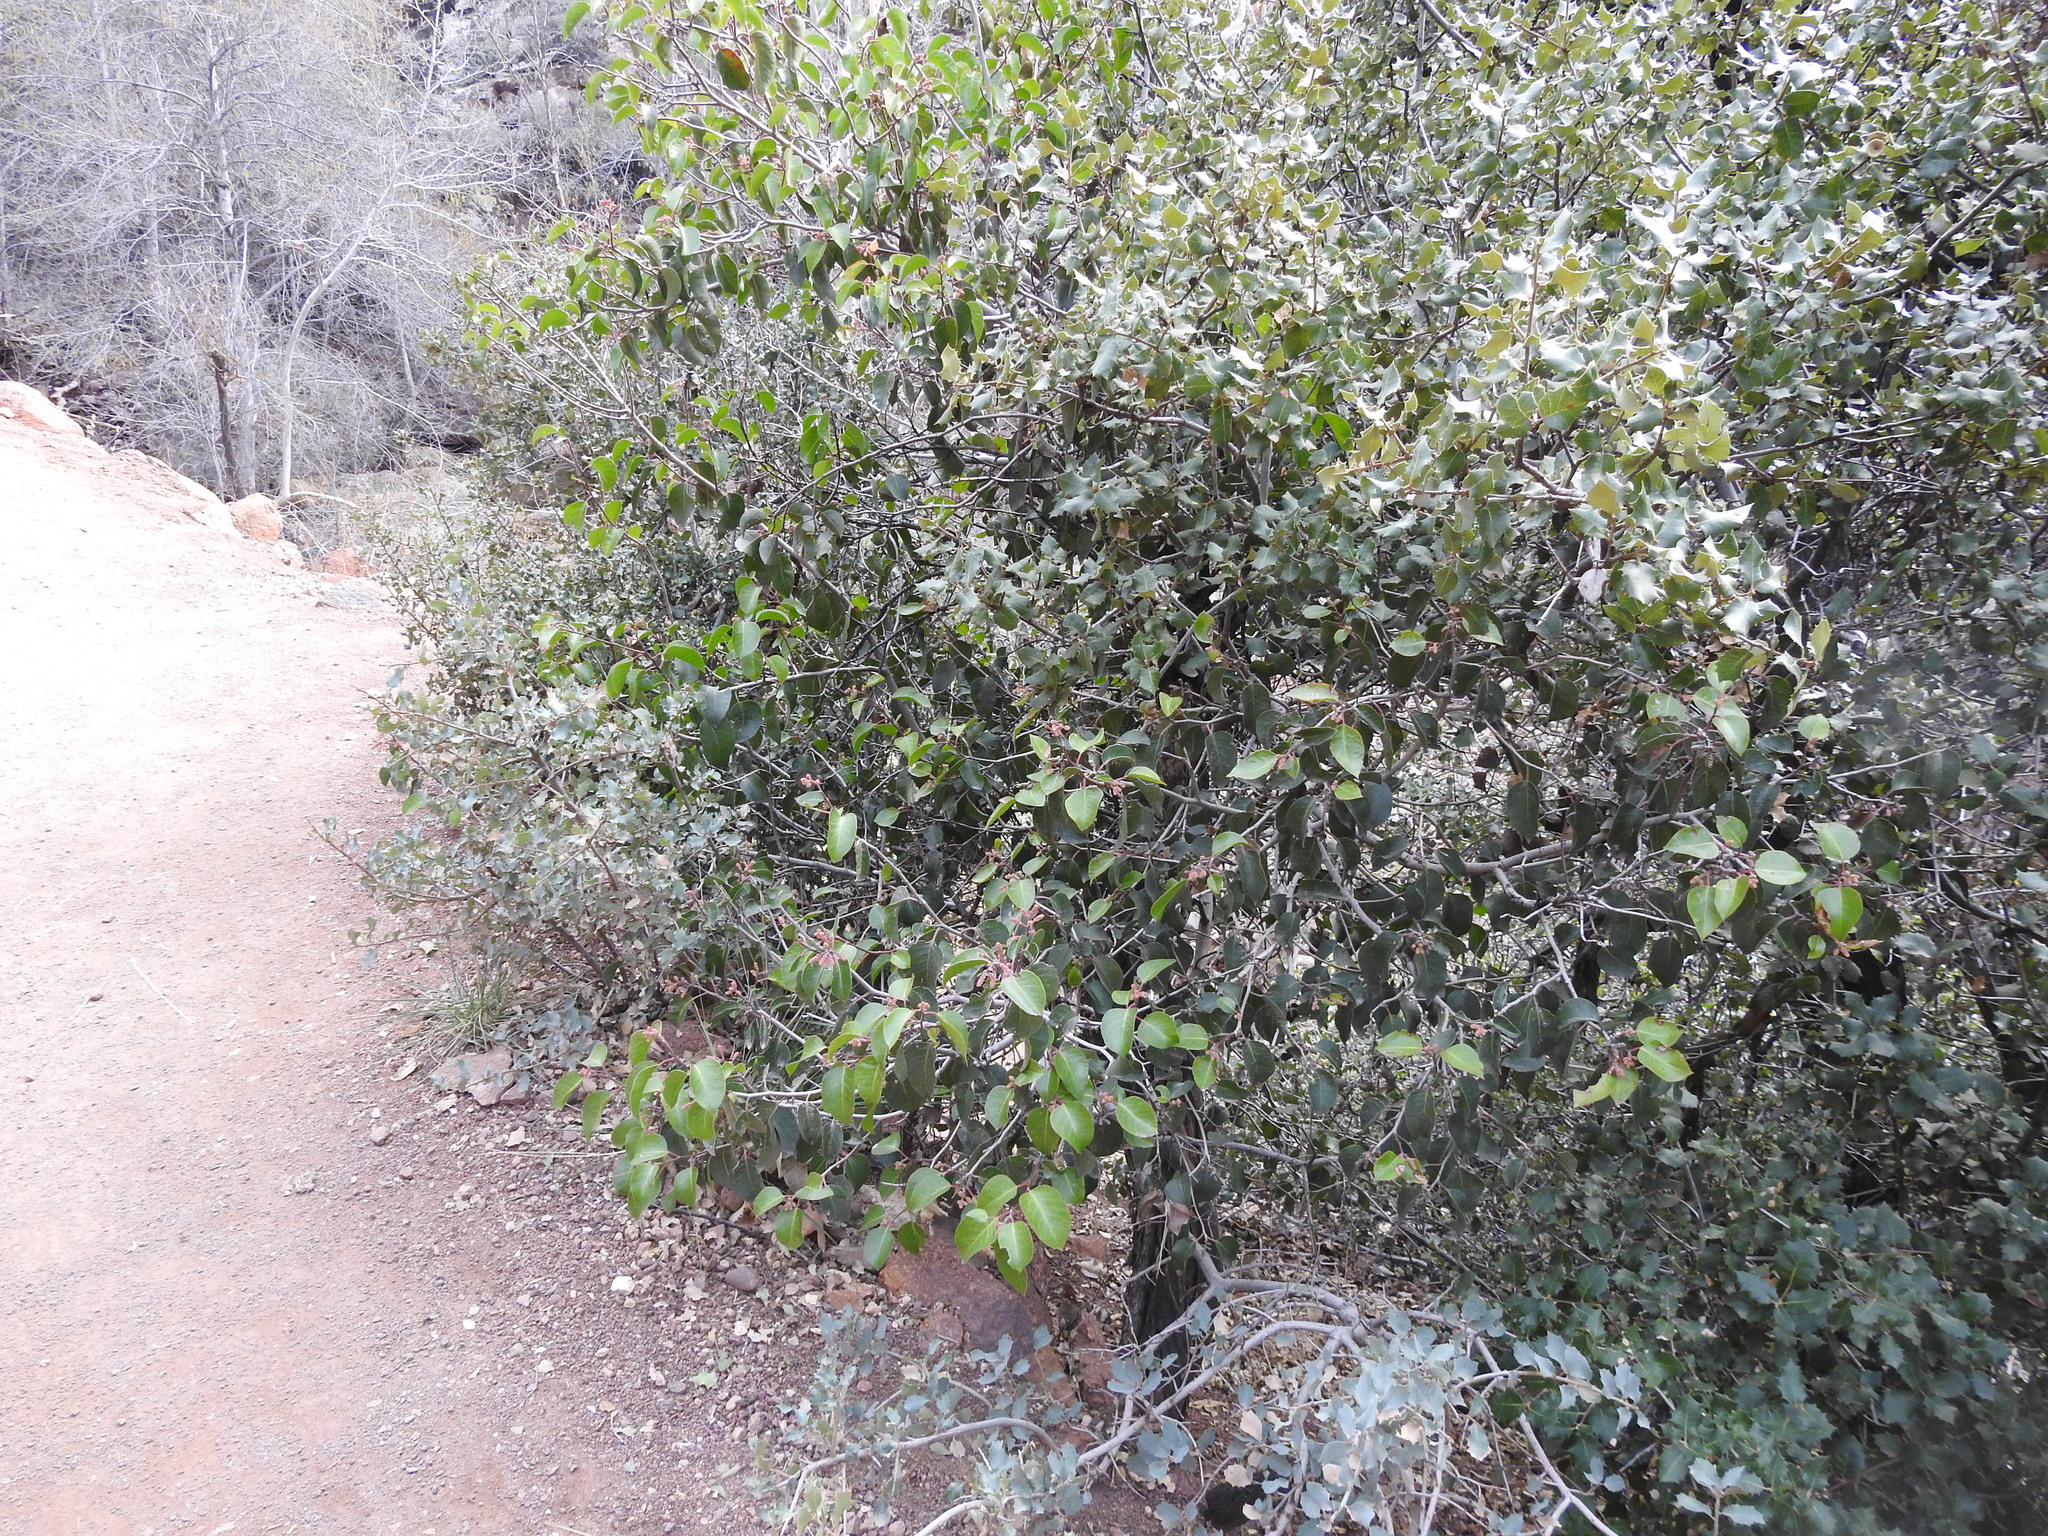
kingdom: Plantae
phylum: Tracheophyta
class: Magnoliopsida
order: Sapindales
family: Anacardiaceae
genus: Rhus
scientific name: Rhus ovata
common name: Sugar sumac
